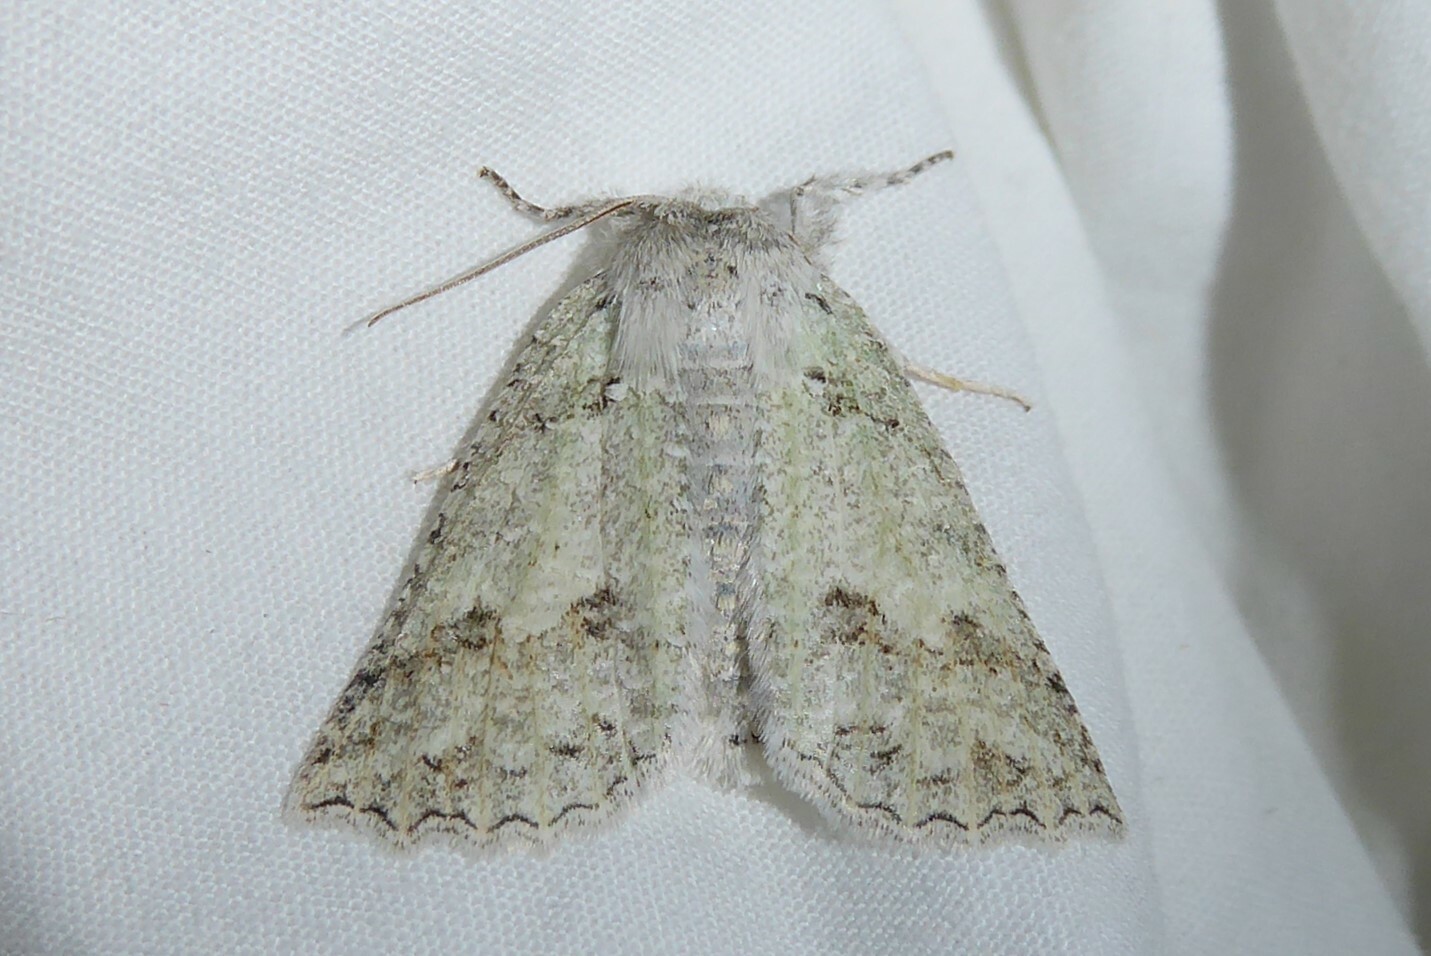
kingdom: Animalia
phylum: Arthropoda
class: Insecta
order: Lepidoptera
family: Geometridae
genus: Declana
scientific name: Declana niveata
